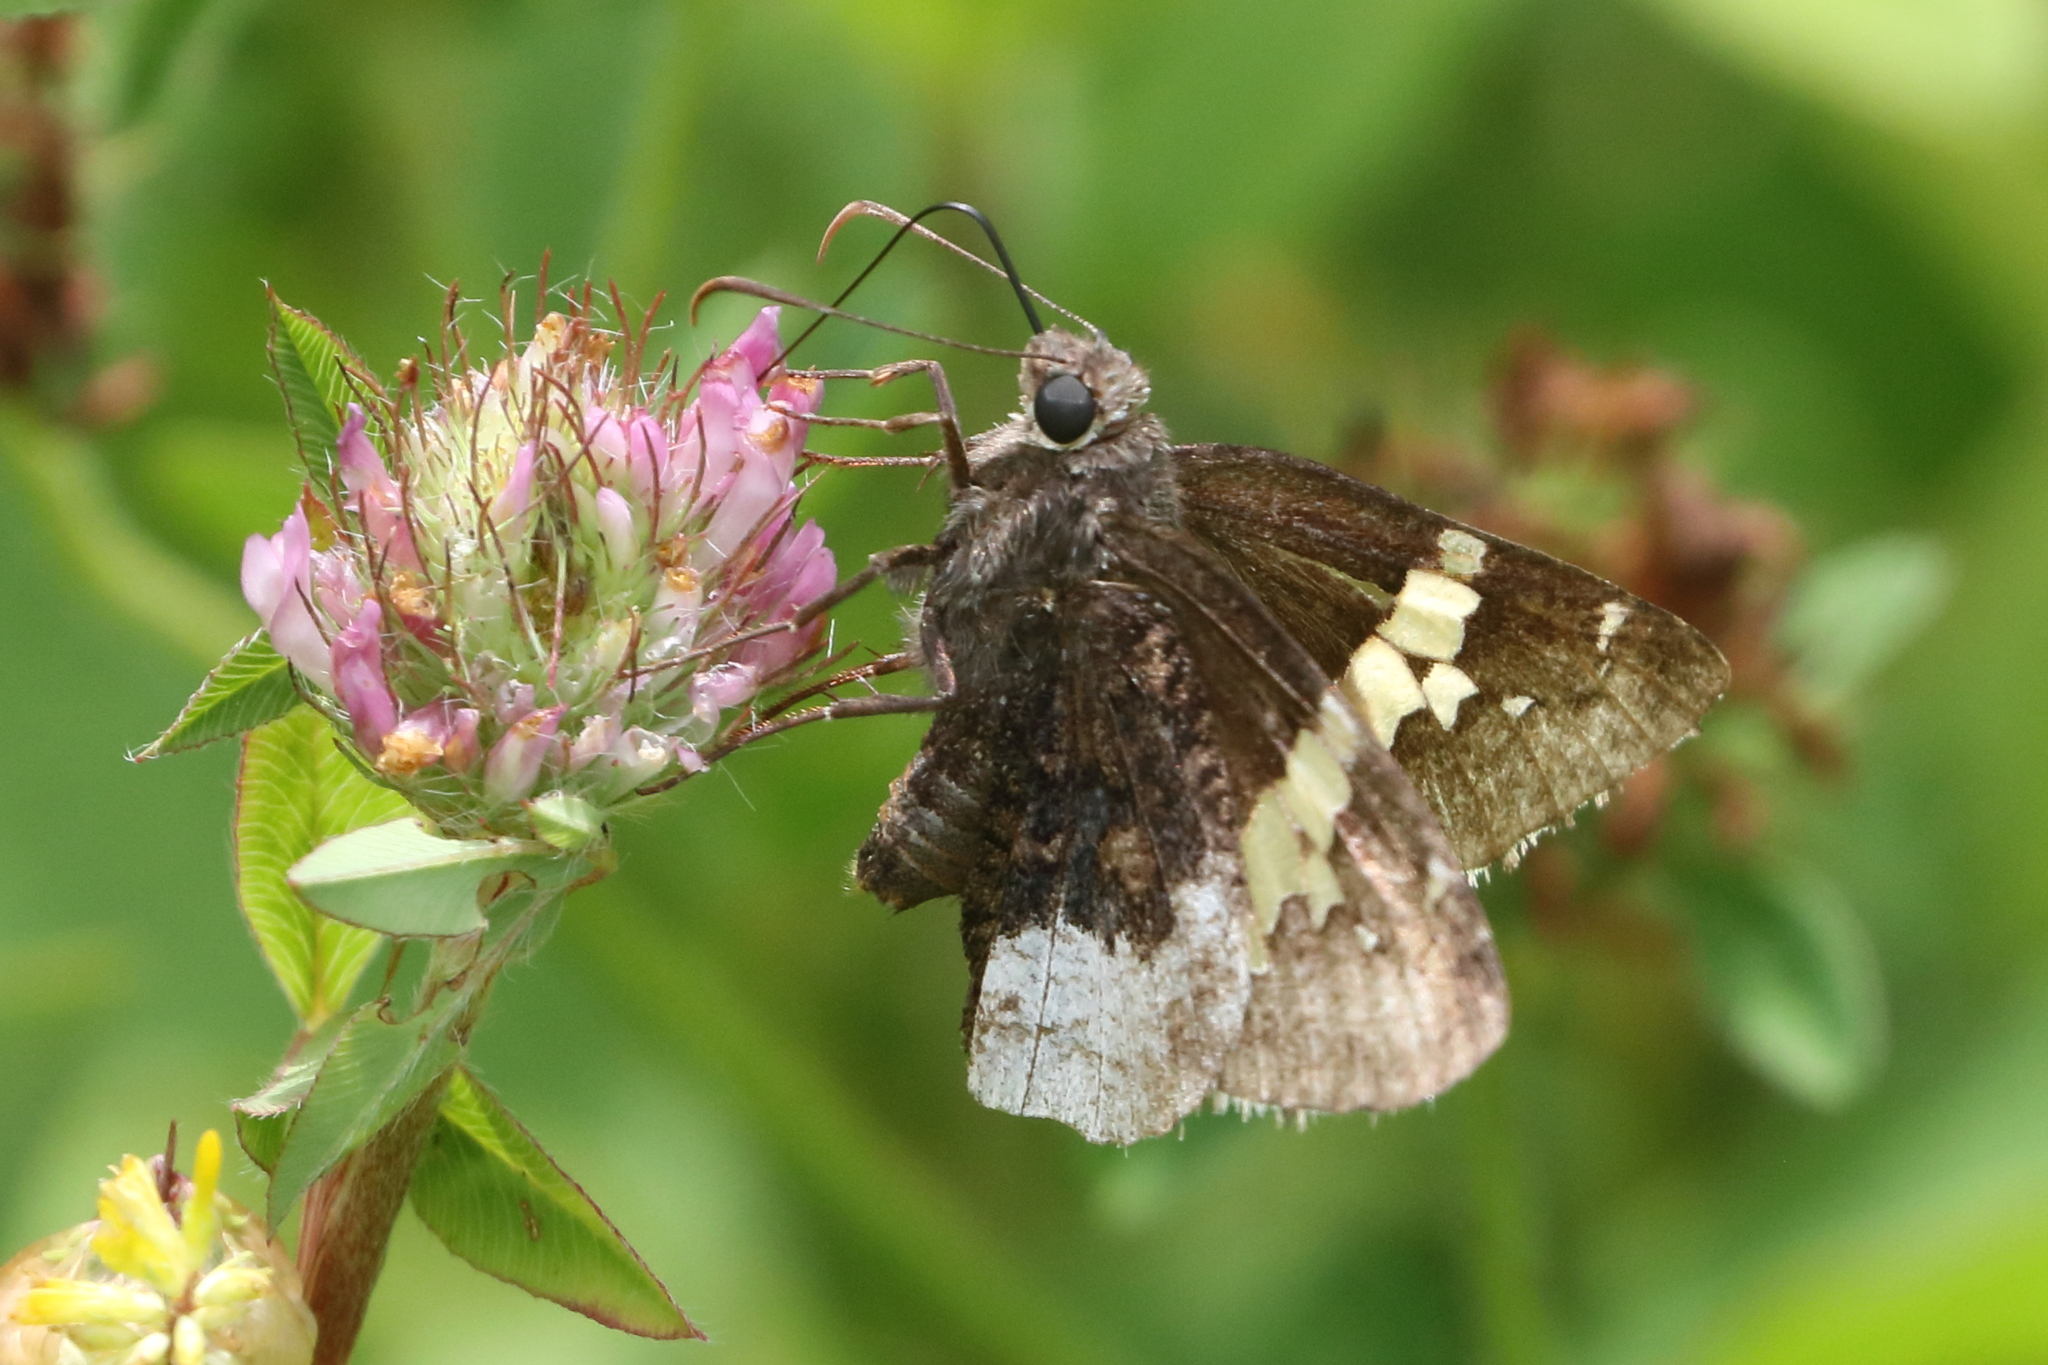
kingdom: Animalia
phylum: Arthropoda
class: Insecta
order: Lepidoptera
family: Hesperiidae
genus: Thorybes
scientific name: Thorybes lyciades
